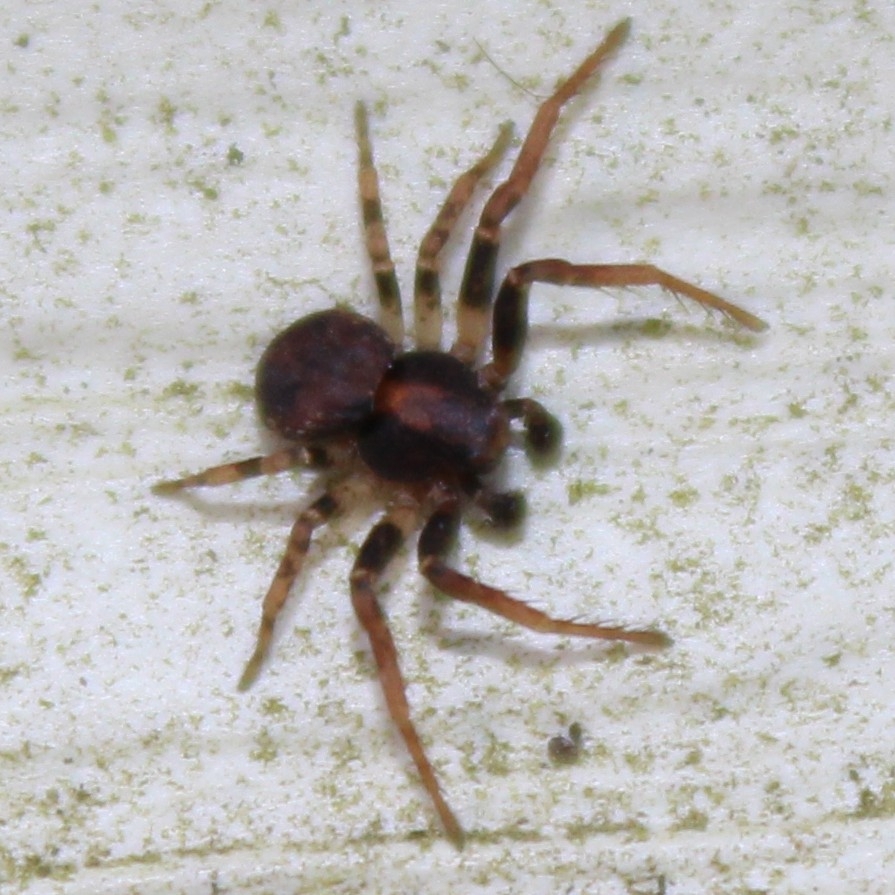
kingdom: Animalia
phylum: Arthropoda
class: Arachnida
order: Araneae
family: Thomisidae
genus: Ozyptila
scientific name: Ozyptila praticola
